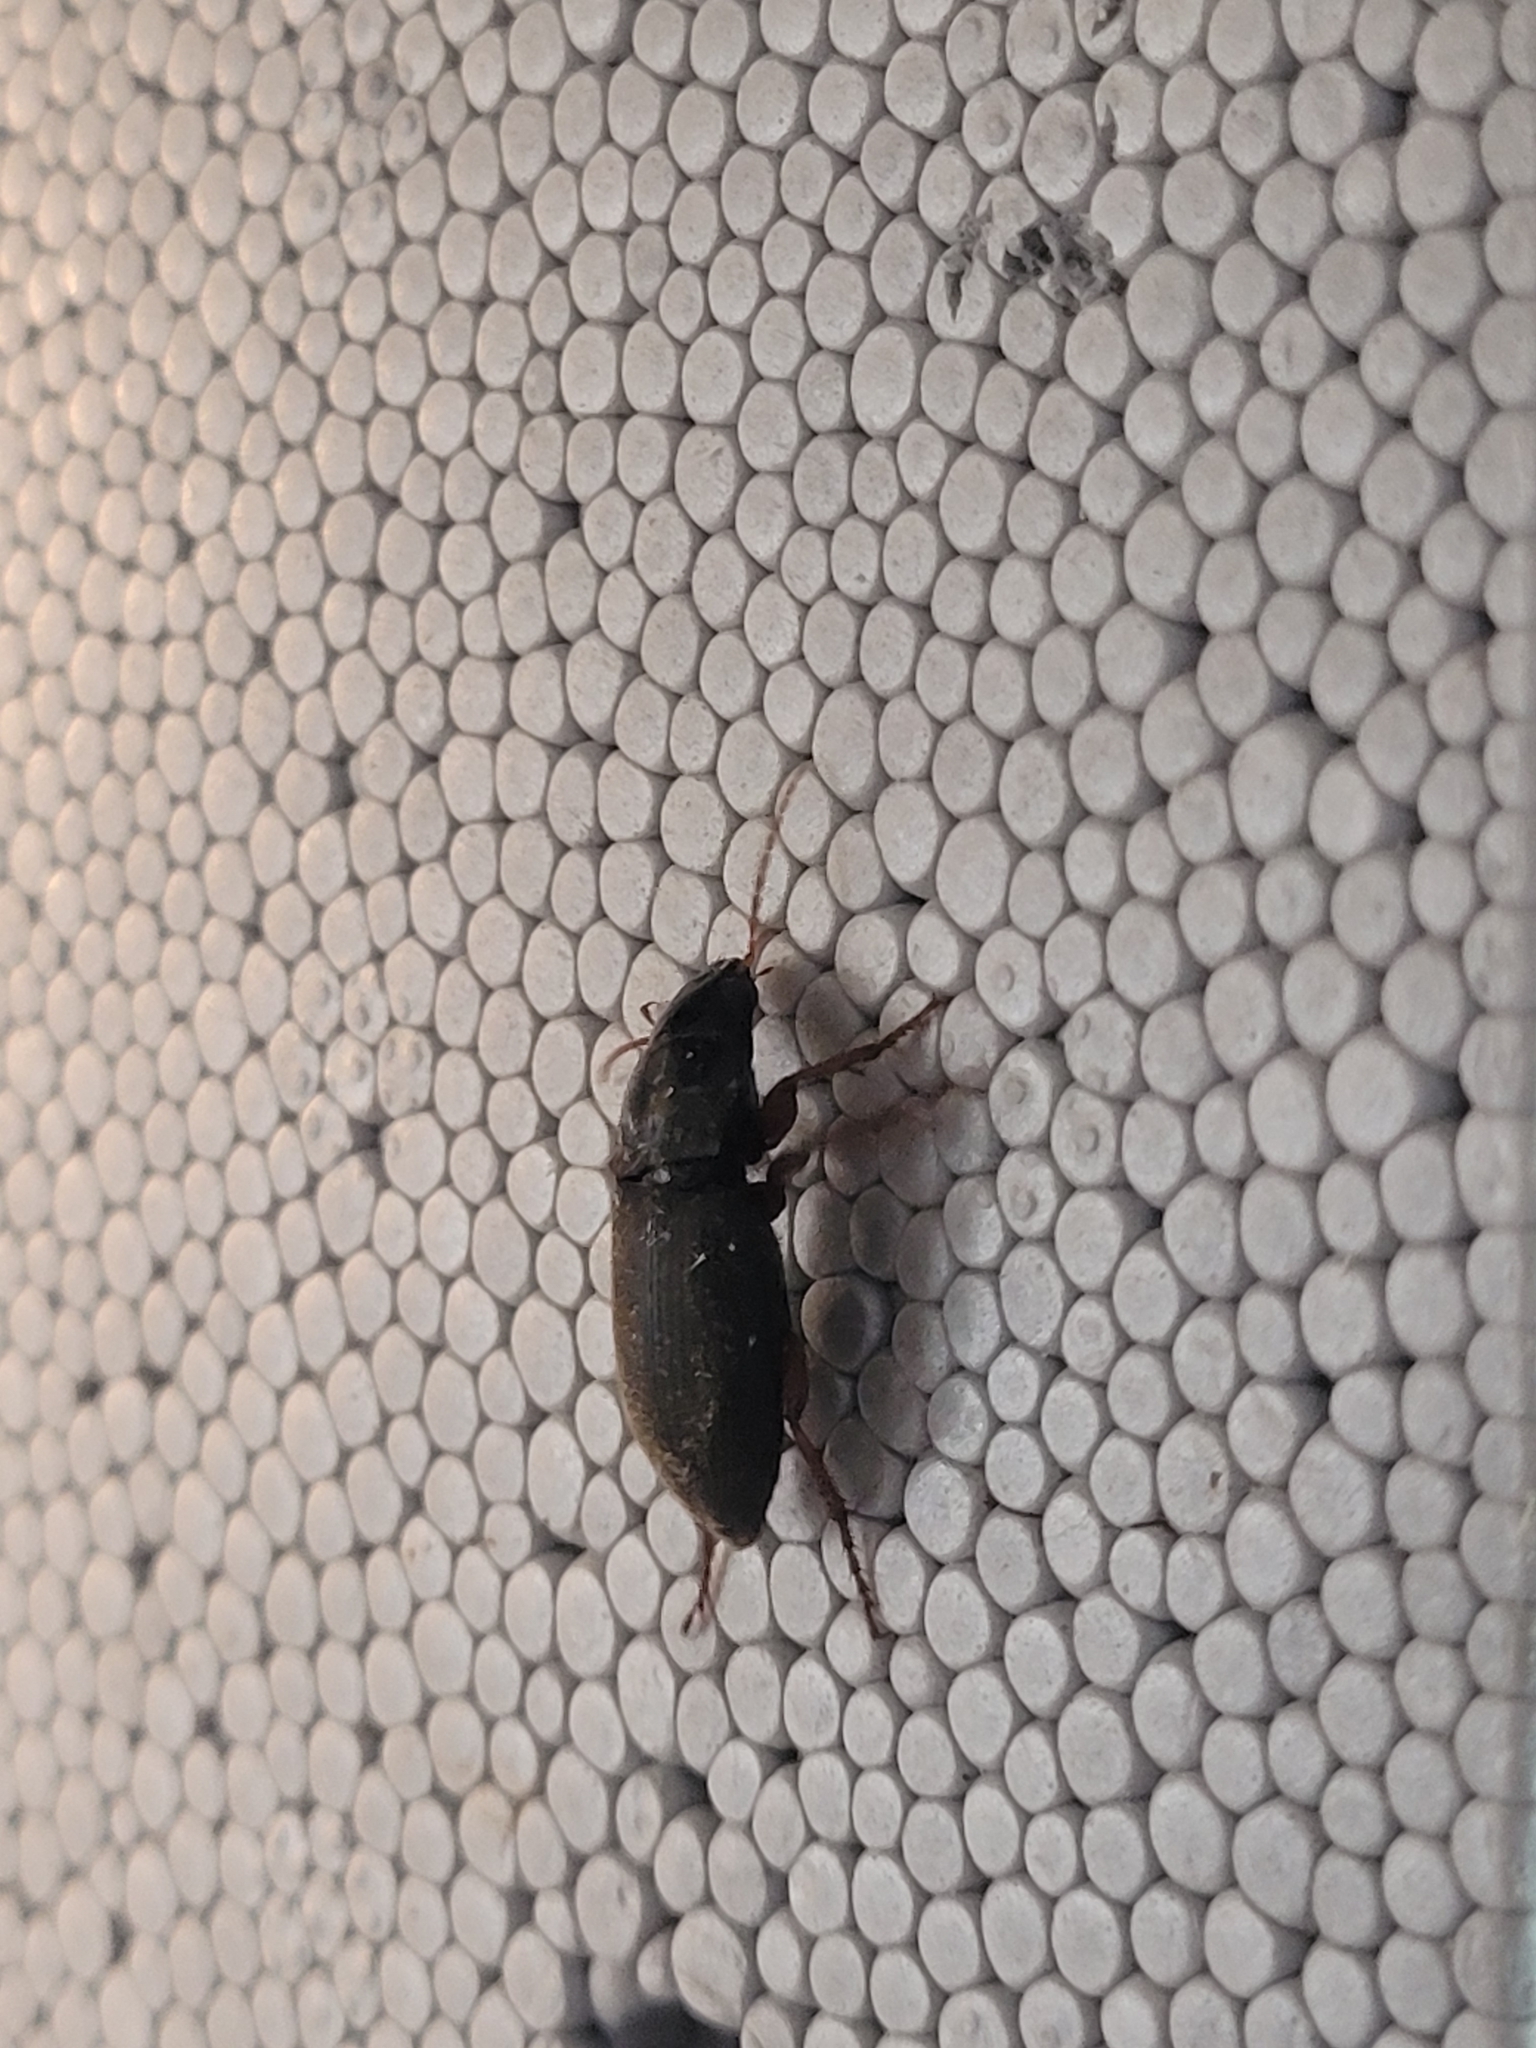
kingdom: Animalia
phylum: Arthropoda
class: Insecta
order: Coleoptera
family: Carabidae
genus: Harpalus
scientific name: Harpalus rufipes
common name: Strawberry harp ground beetle
